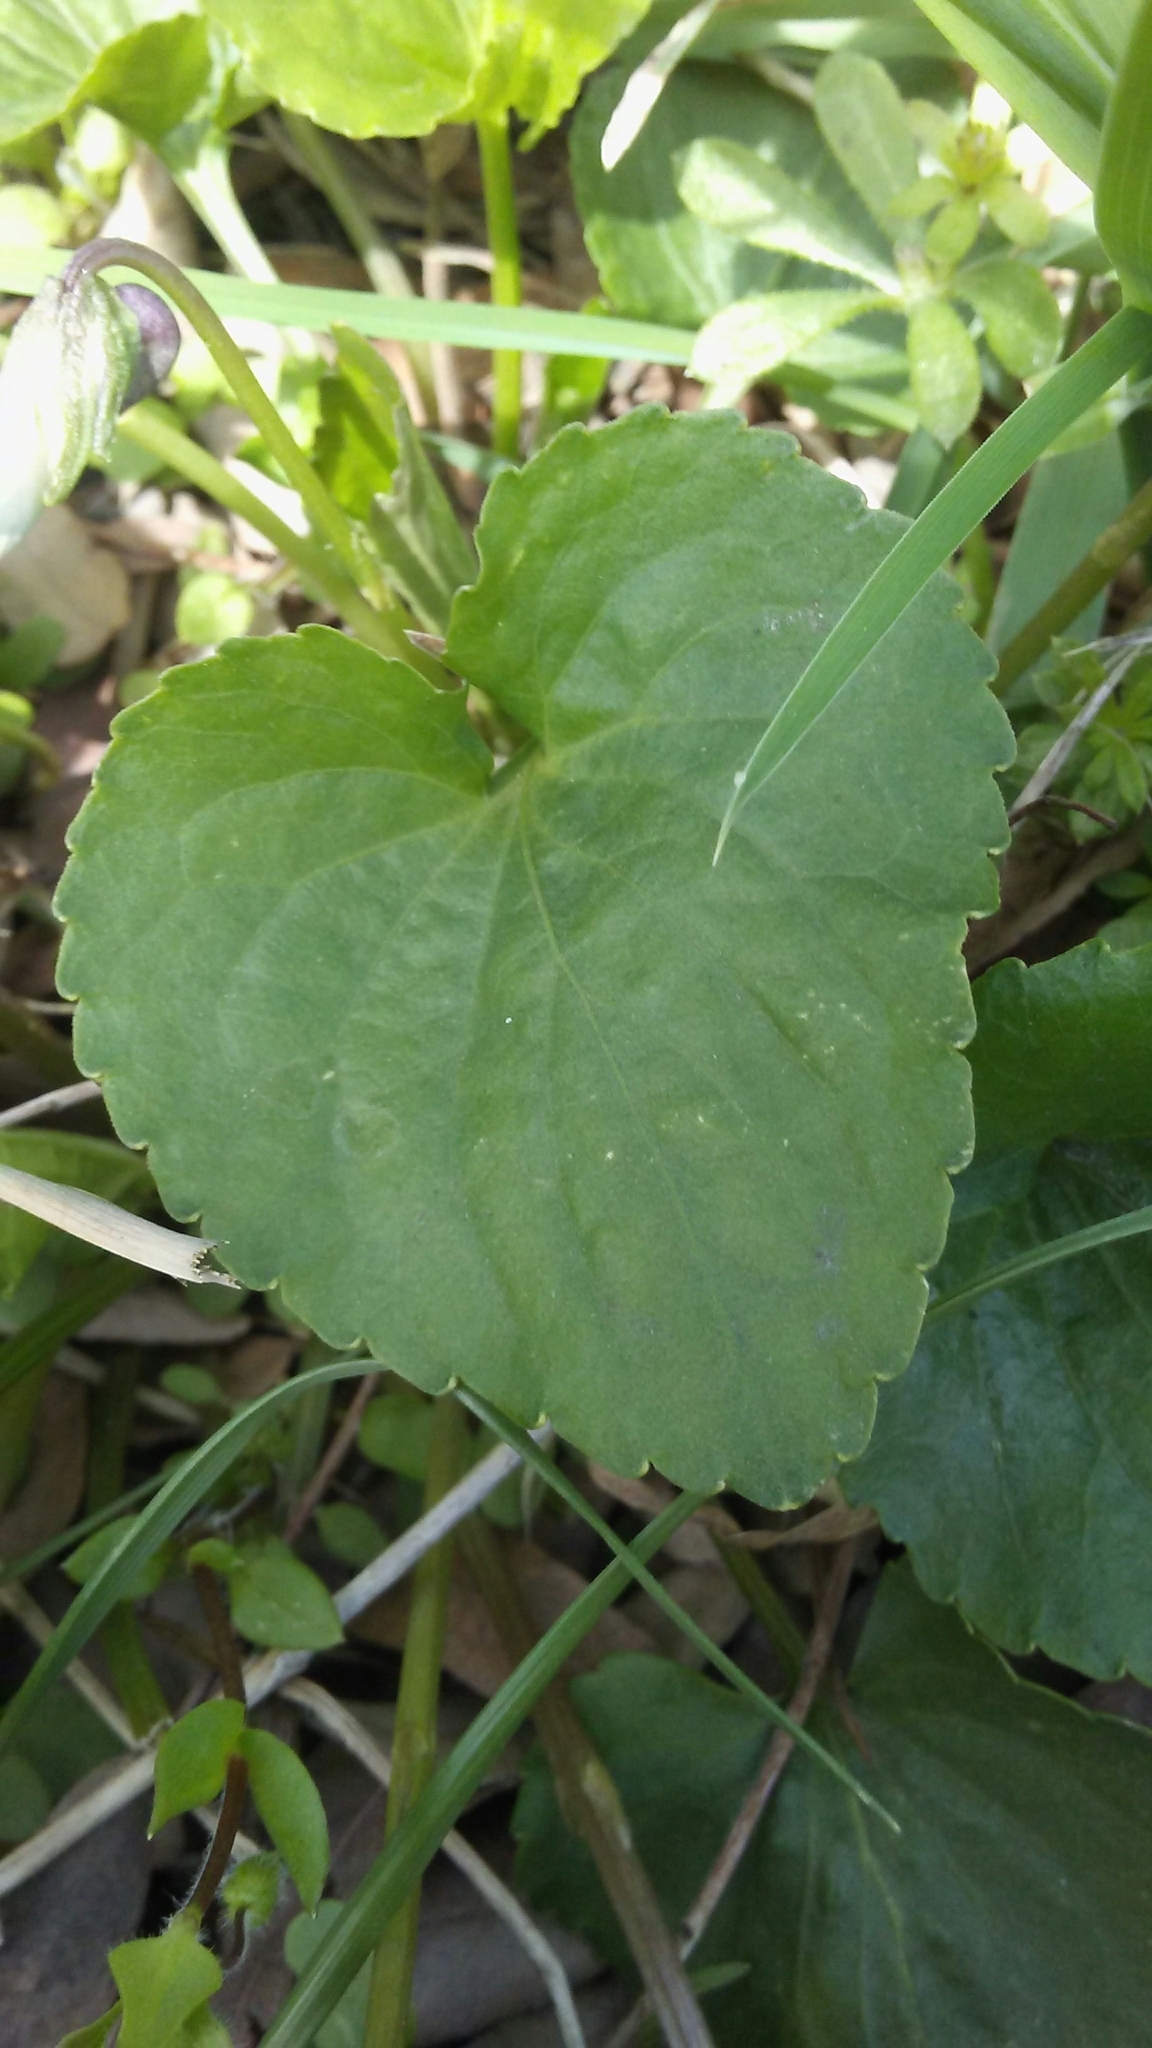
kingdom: Plantae
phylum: Tracheophyta
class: Magnoliopsida
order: Malpighiales
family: Violaceae
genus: Viola
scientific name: Viola sororia
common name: Dooryard violet
